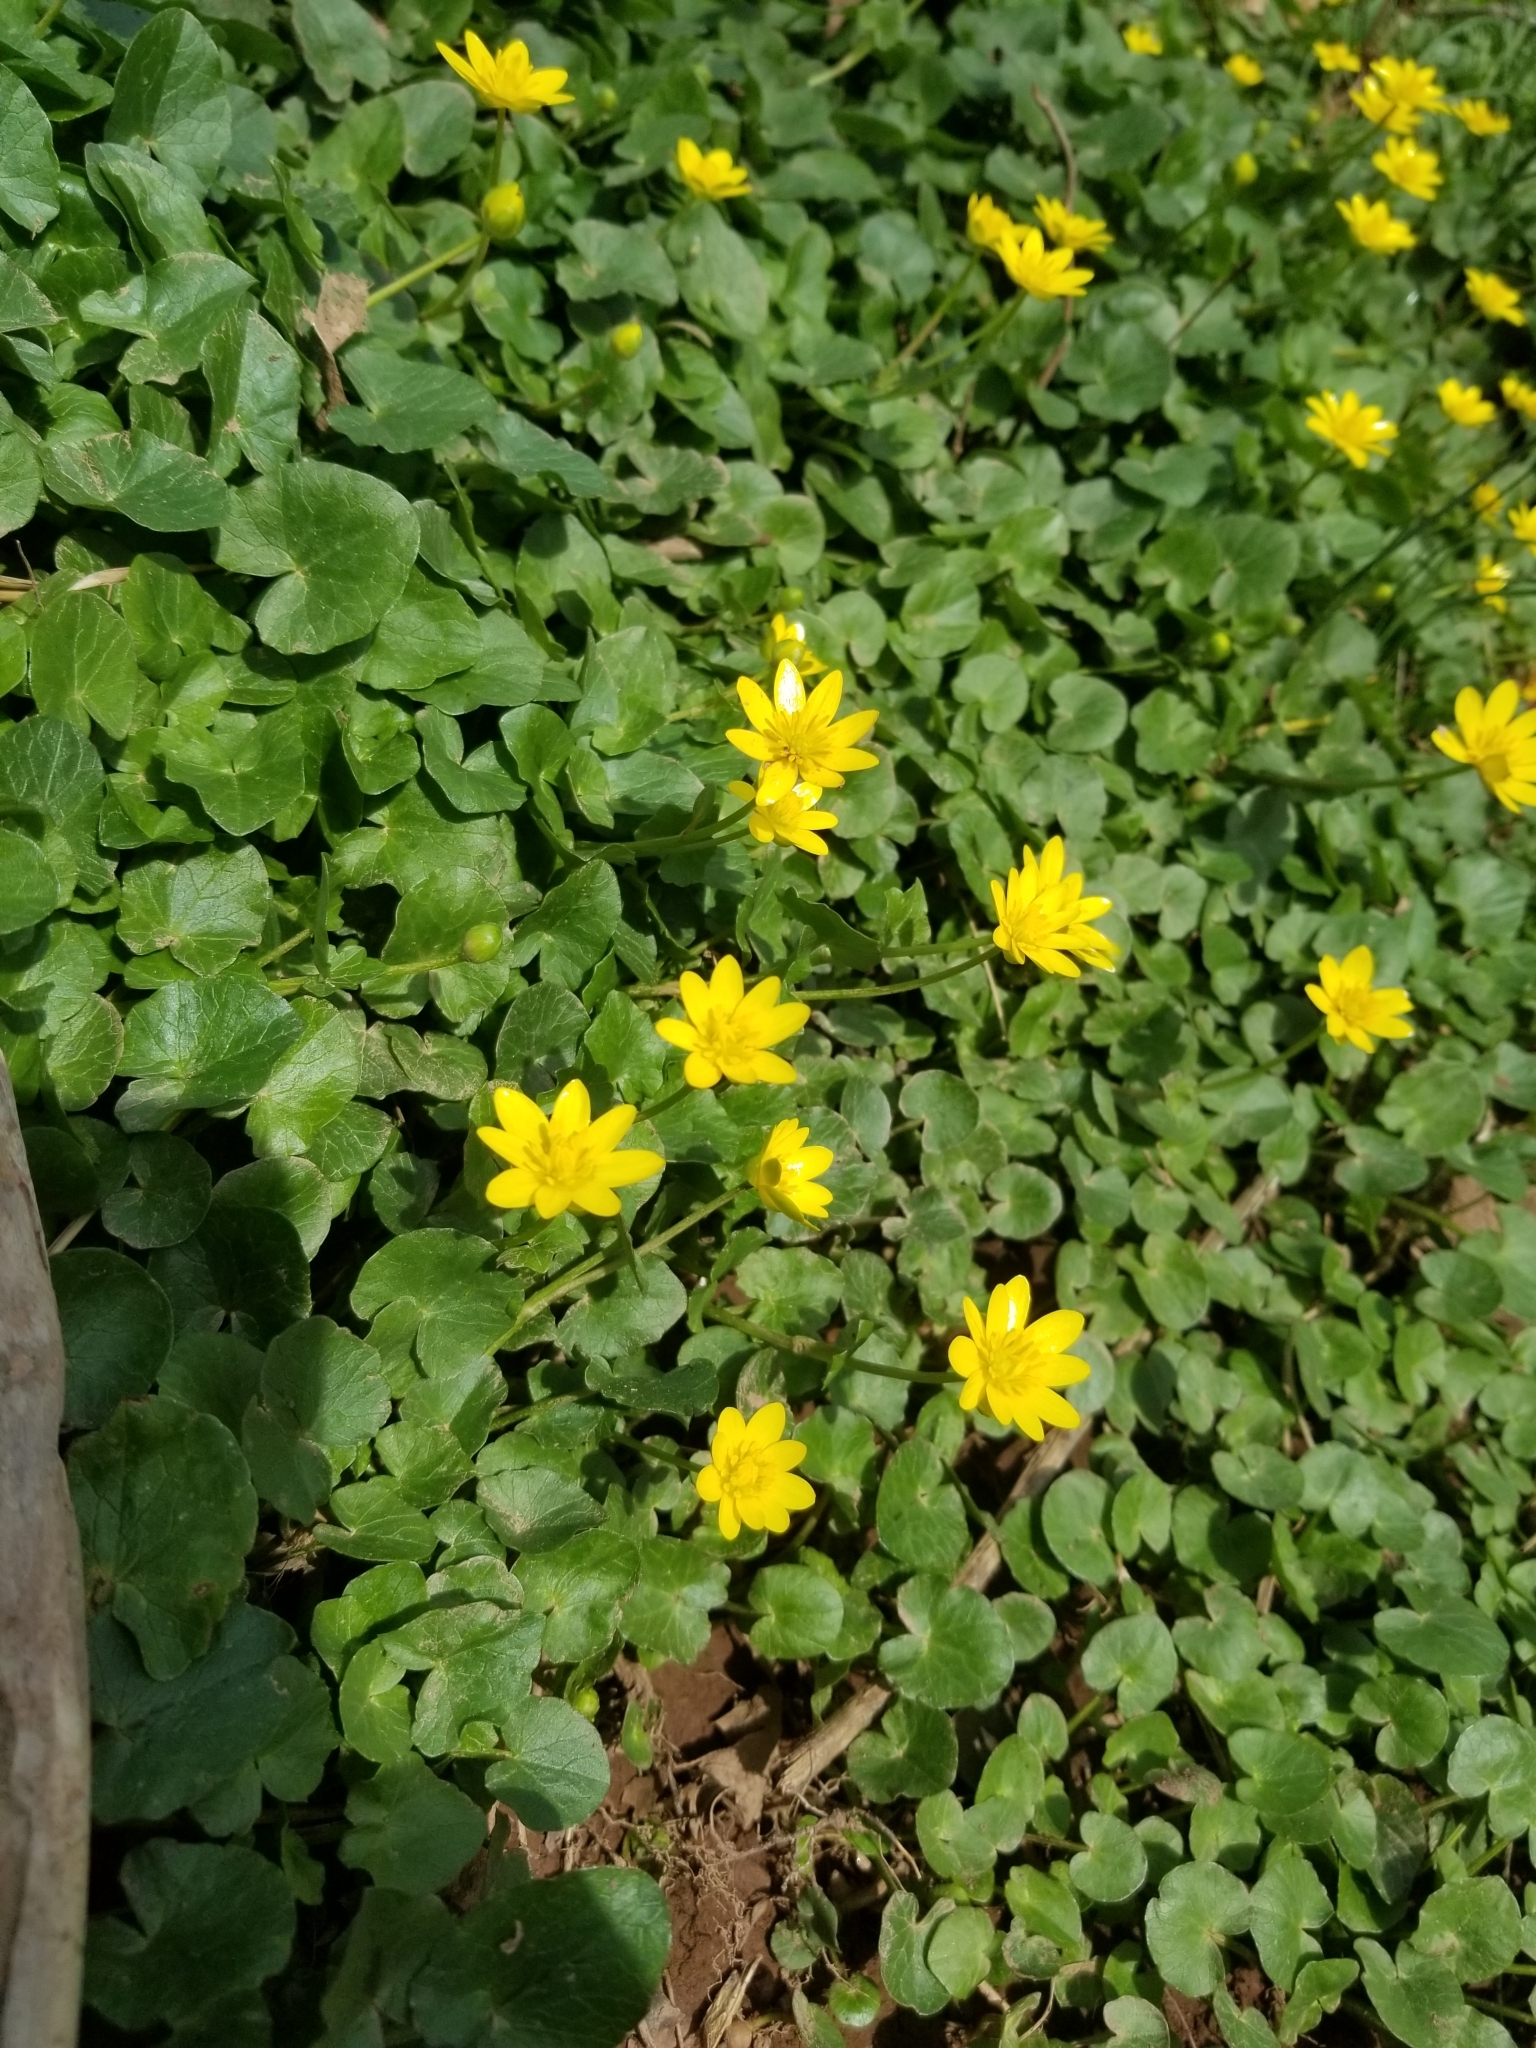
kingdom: Plantae
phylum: Tracheophyta
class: Magnoliopsida
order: Ranunculales
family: Ranunculaceae
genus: Ficaria
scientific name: Ficaria verna
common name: Lesser celandine
